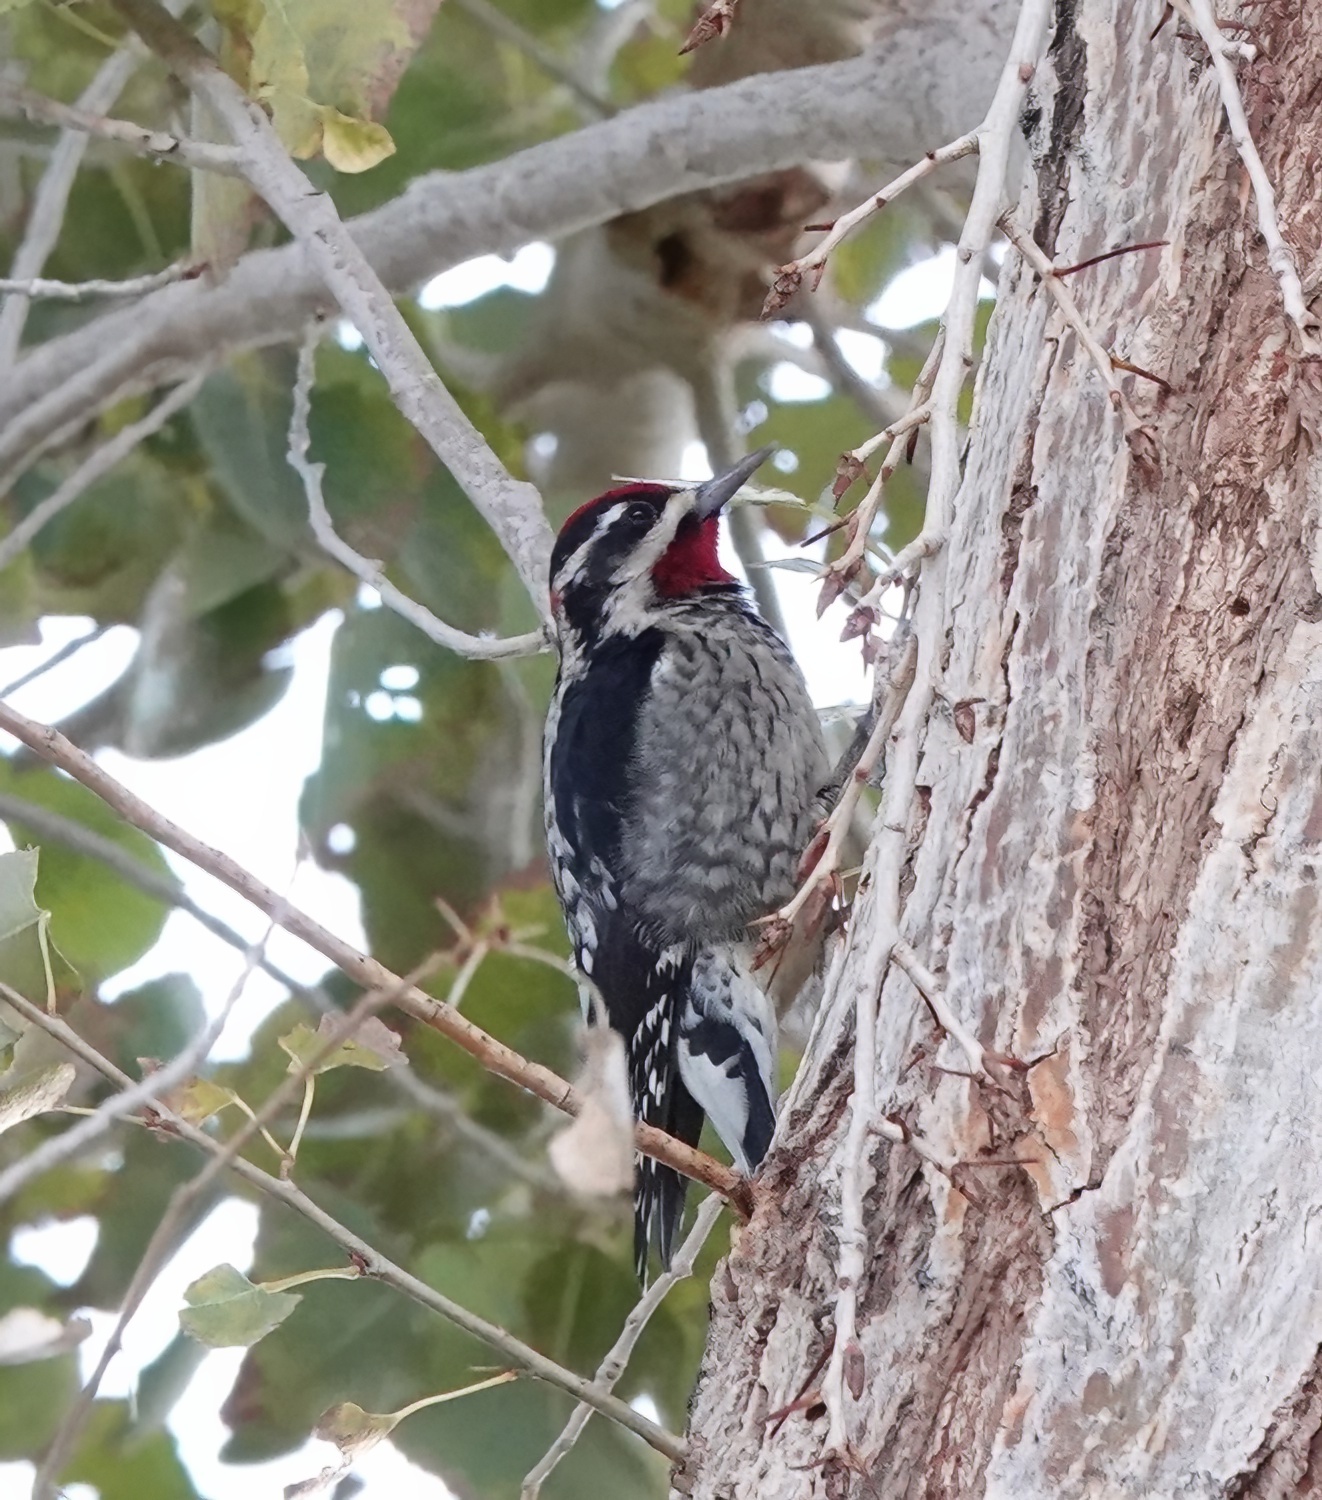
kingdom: Animalia
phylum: Chordata
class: Aves
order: Piciformes
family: Picidae
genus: Sphyrapicus
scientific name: Sphyrapicus nuchalis
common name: Red-naped sapsucker
